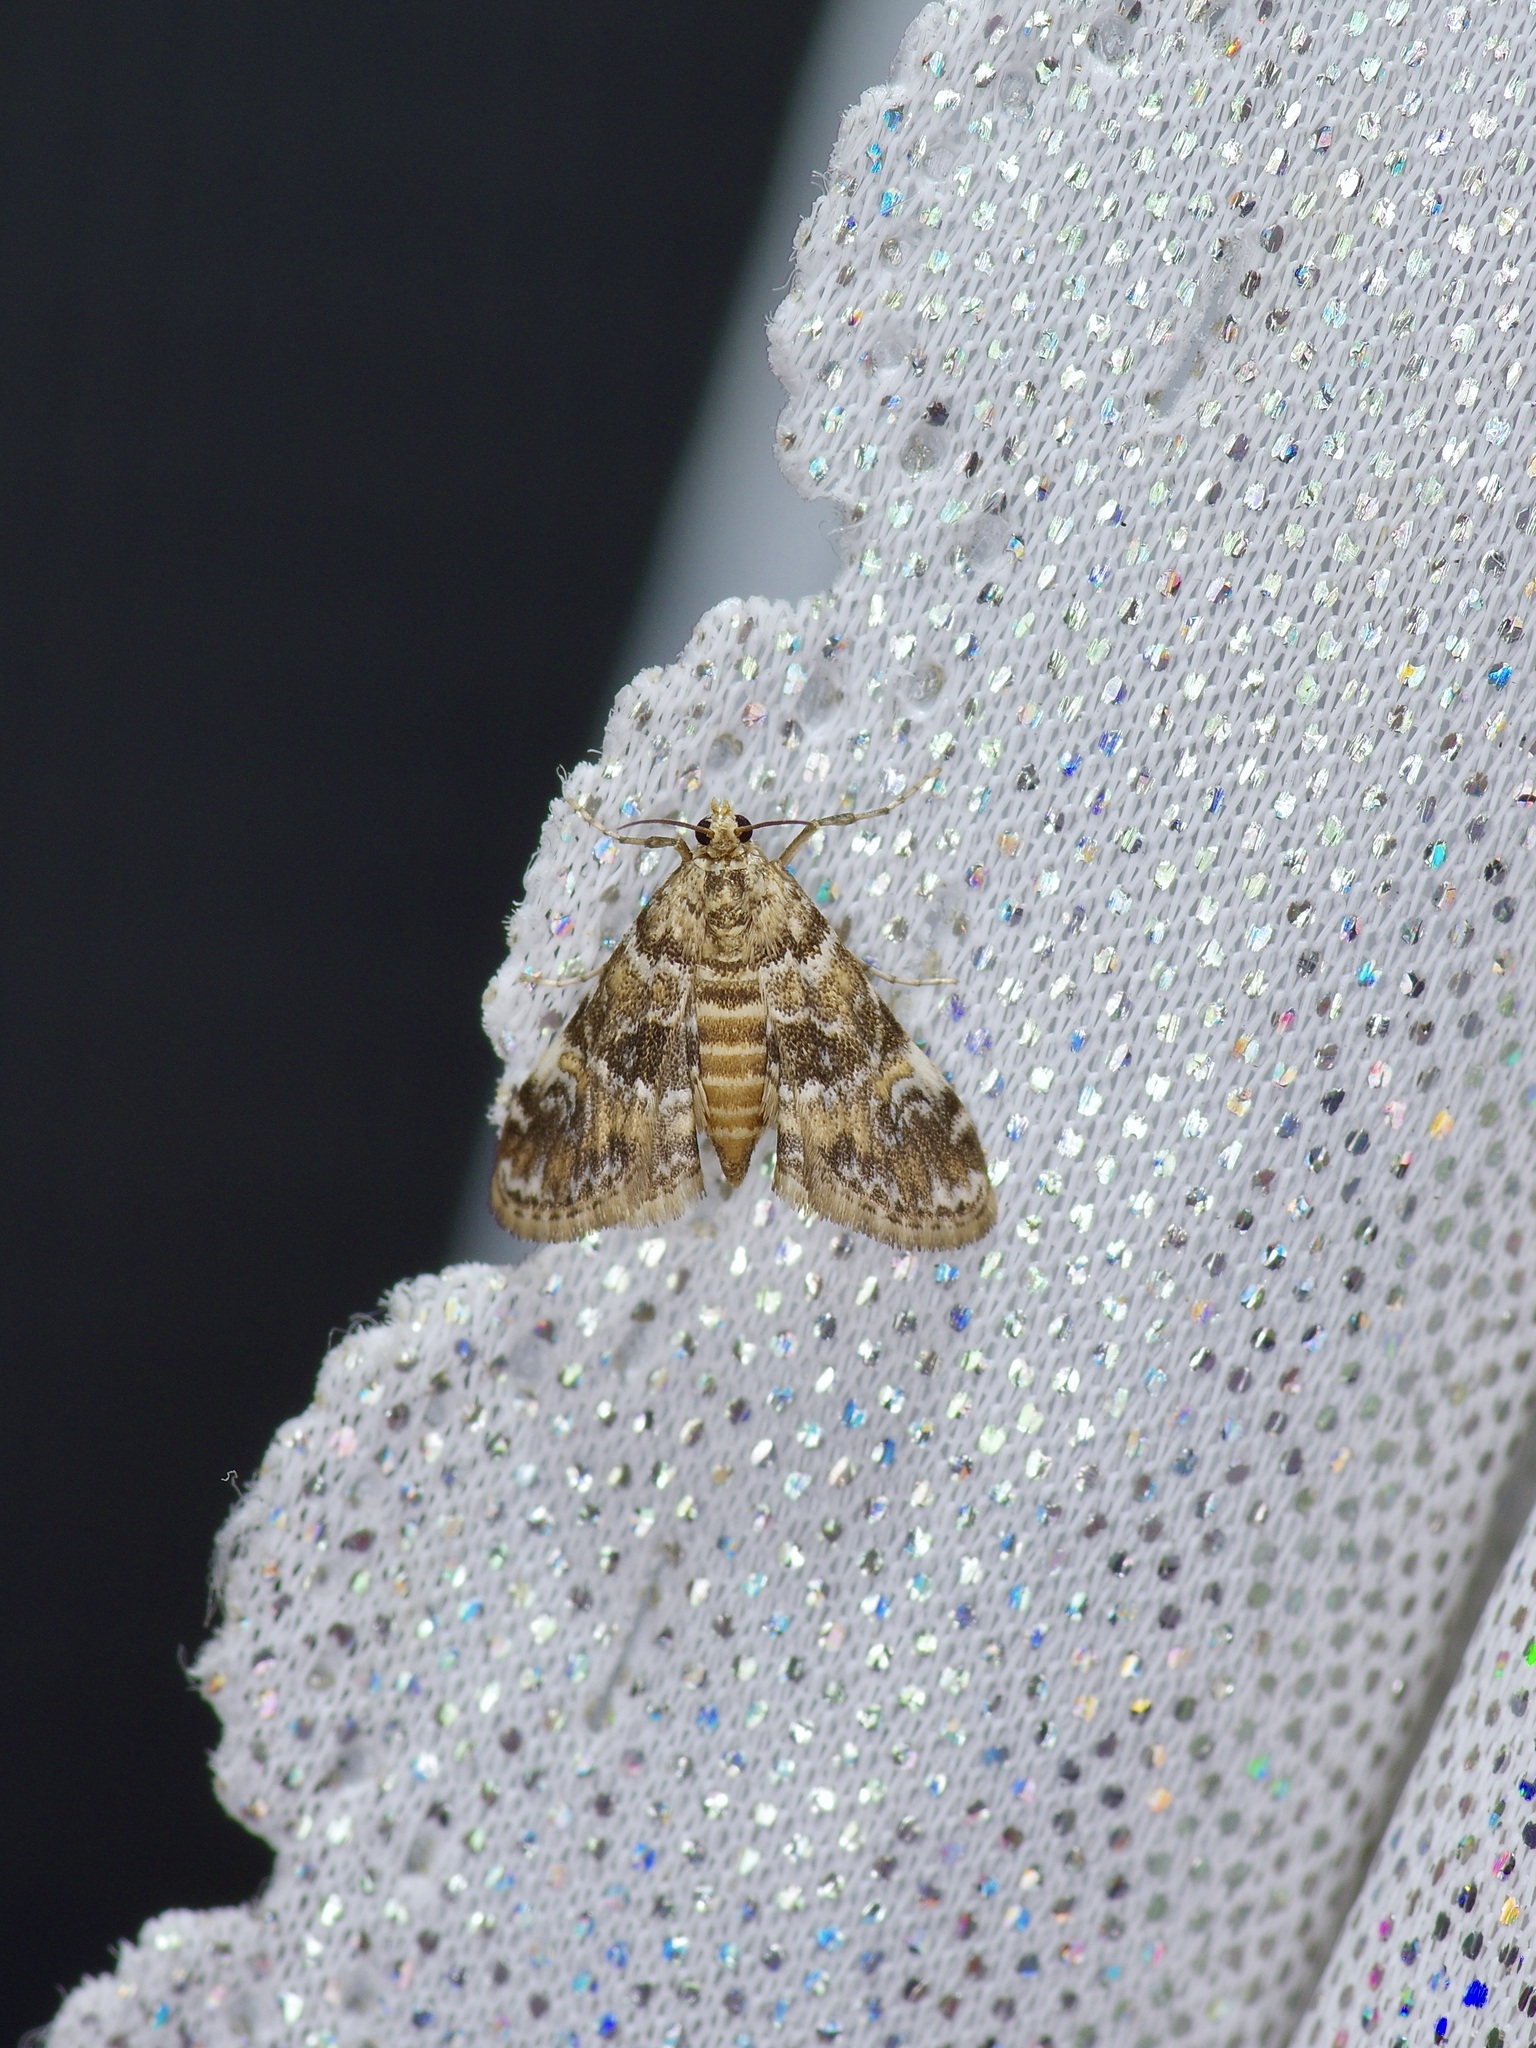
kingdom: Animalia
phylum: Arthropoda
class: Insecta
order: Lepidoptera
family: Crambidae
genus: Elophila
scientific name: Elophila obliteralis
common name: Waterlily leafcutter moth
